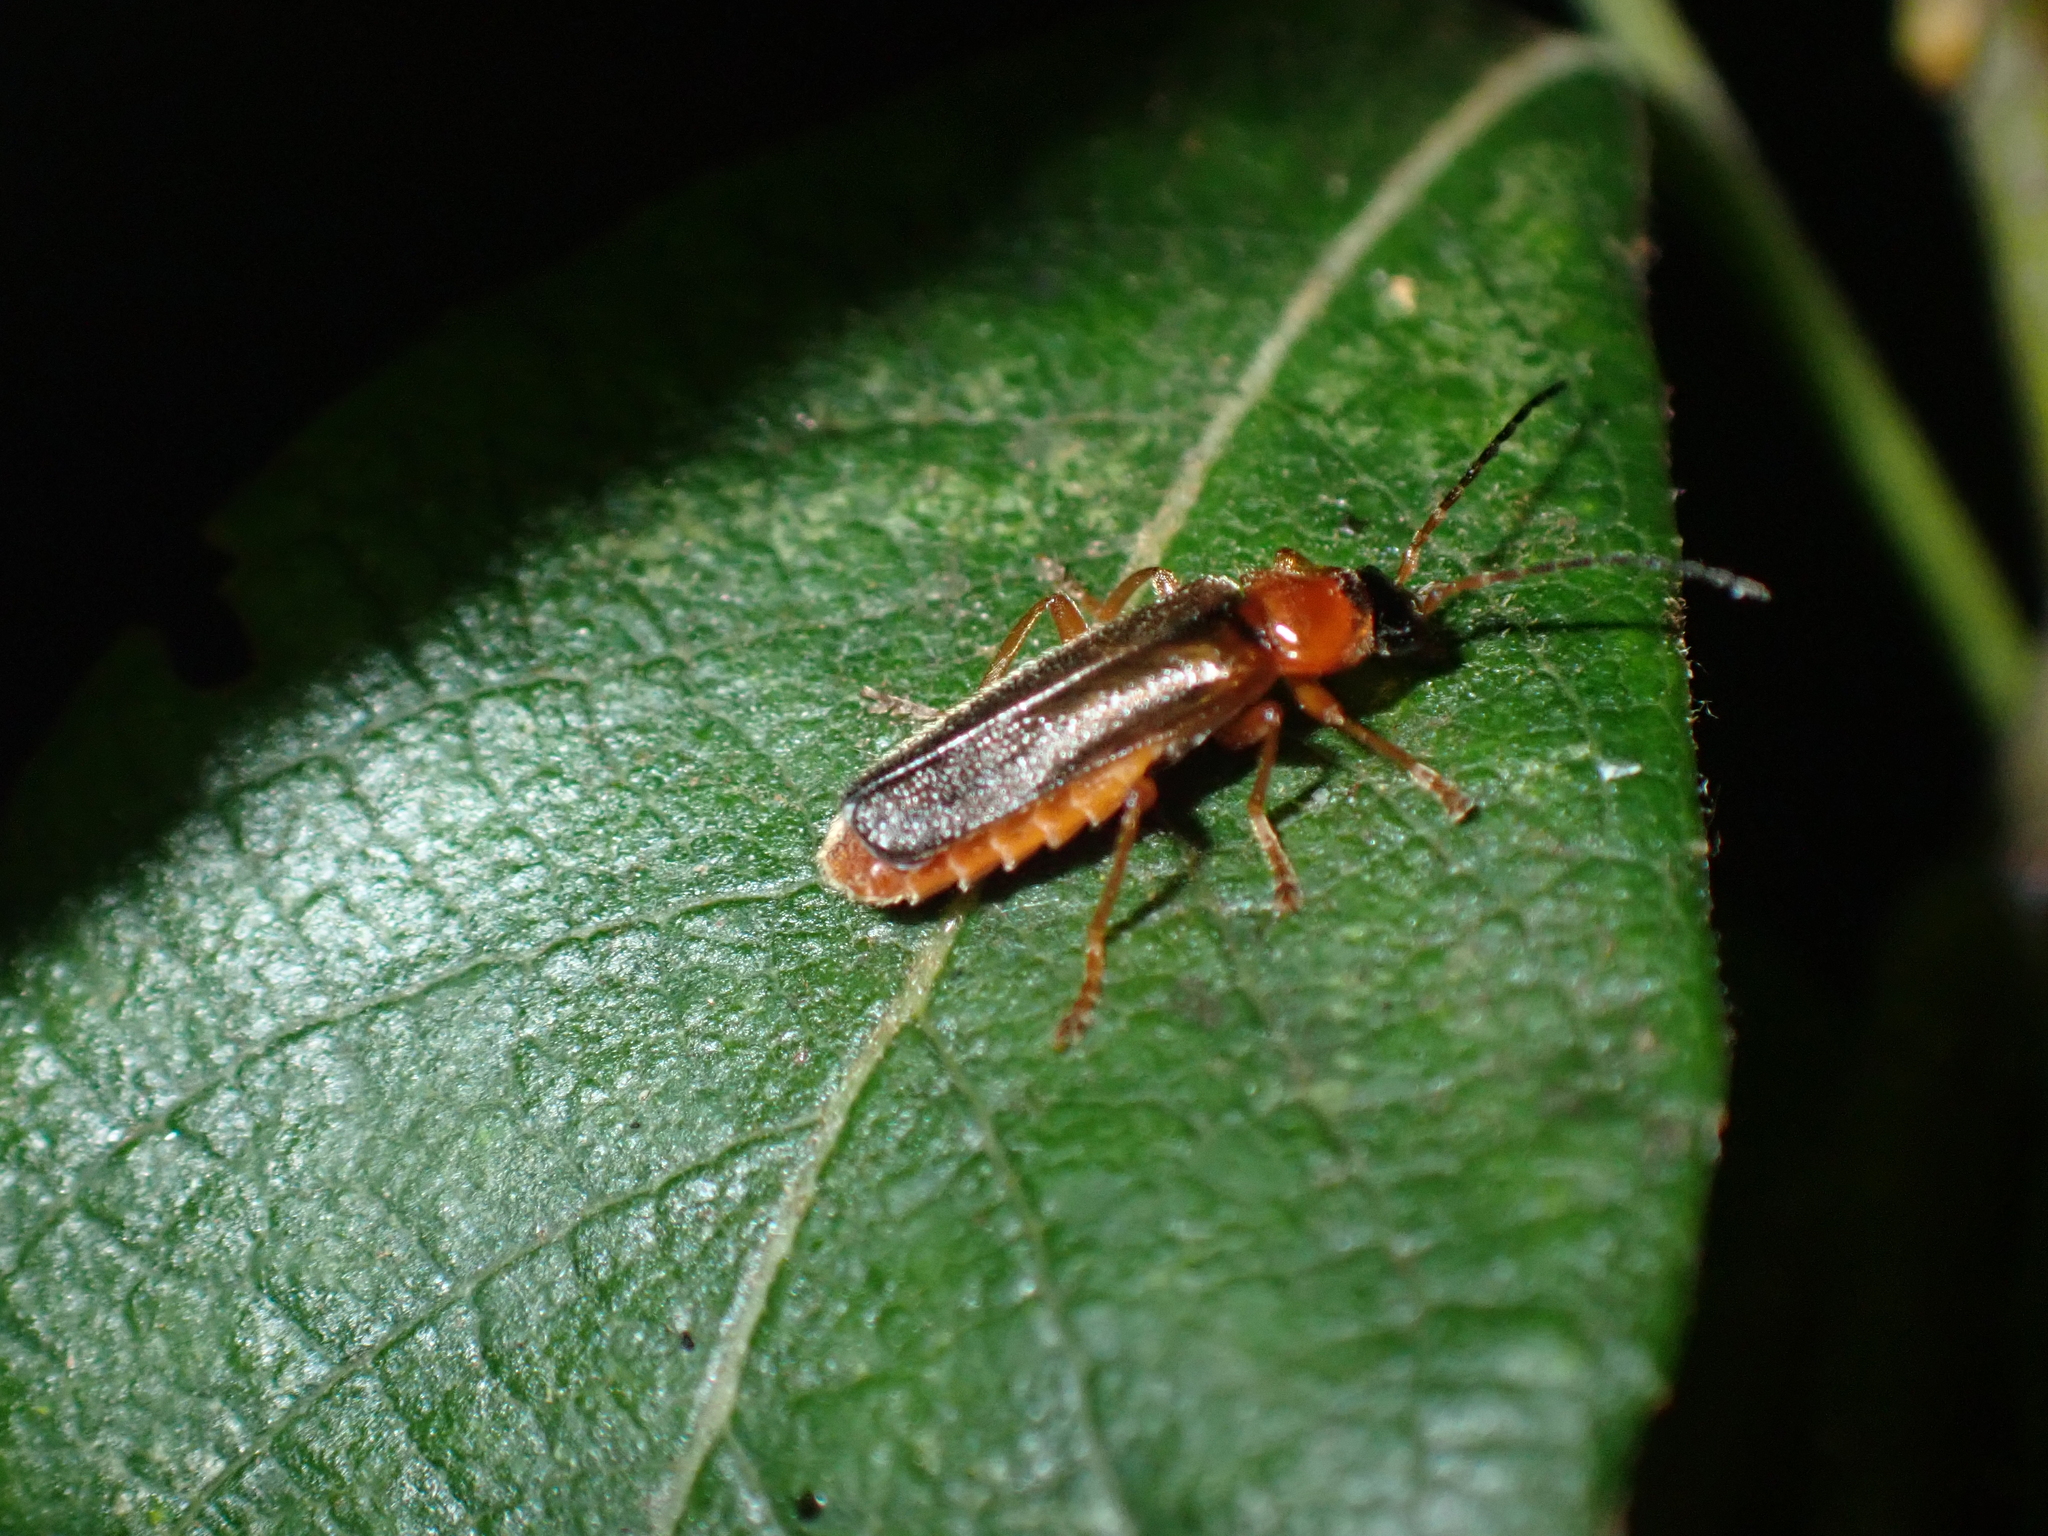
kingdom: Animalia
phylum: Arthropoda
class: Insecta
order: Coleoptera
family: Cantharidae
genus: Cantharis
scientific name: Cantharis nigra
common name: Cantharid beetle
